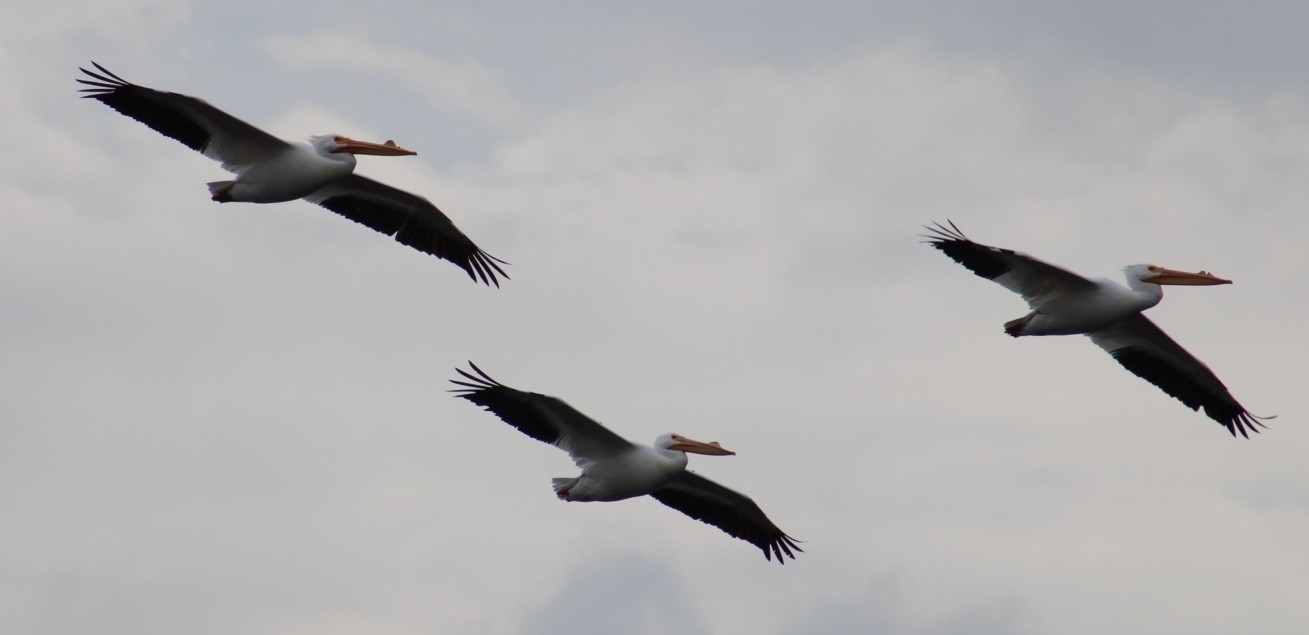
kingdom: Animalia
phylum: Chordata
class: Aves
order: Pelecaniformes
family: Pelecanidae
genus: Pelecanus
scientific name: Pelecanus erythrorhynchos
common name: American white pelican
